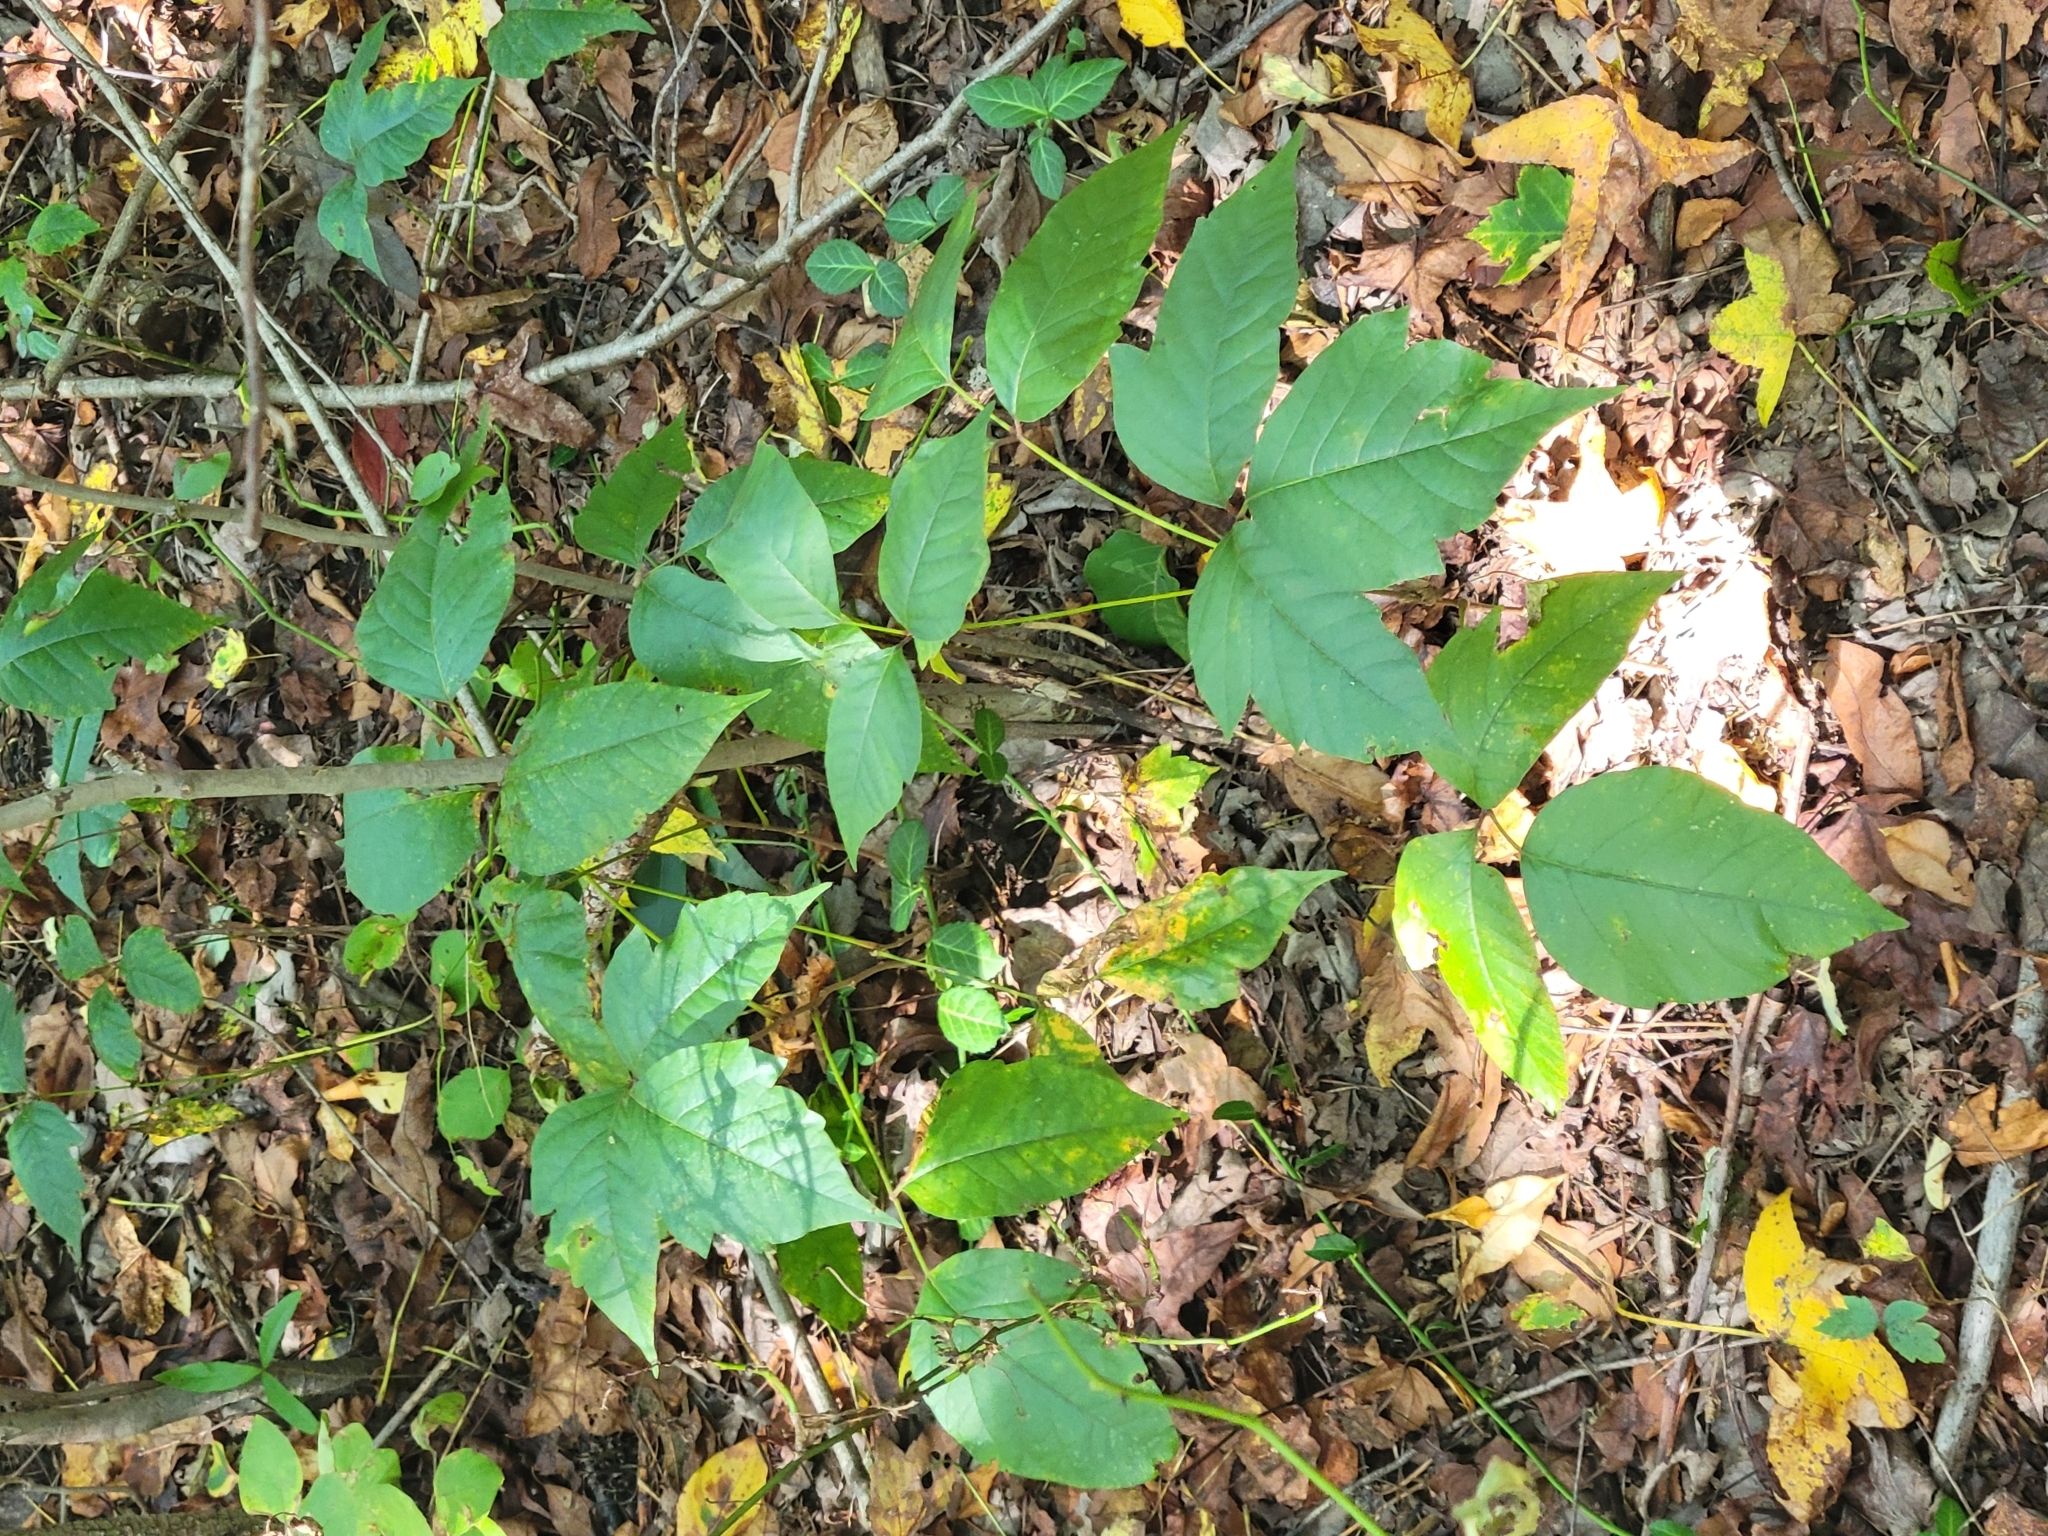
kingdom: Plantae
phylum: Tracheophyta
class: Magnoliopsida
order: Sapindales
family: Anacardiaceae
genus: Toxicodendron
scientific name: Toxicodendron radicans
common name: Poison ivy
